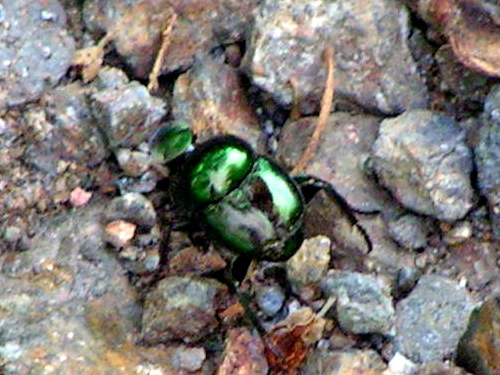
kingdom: Animalia
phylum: Arthropoda
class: Insecta
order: Coleoptera
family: Scarabaeidae
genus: Canthon
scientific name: Canthon
